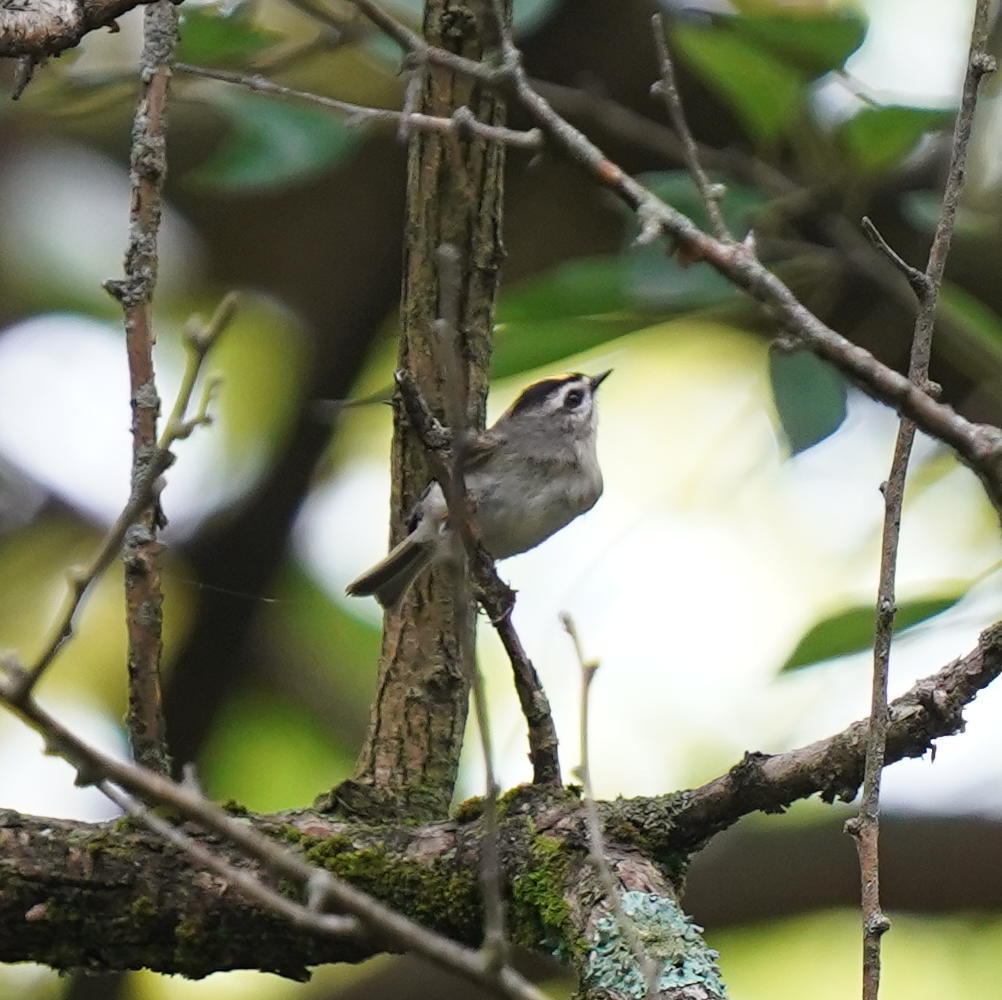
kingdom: Animalia
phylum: Chordata
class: Aves
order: Passeriformes
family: Regulidae
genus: Regulus
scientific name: Regulus satrapa
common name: Golden-crowned kinglet
